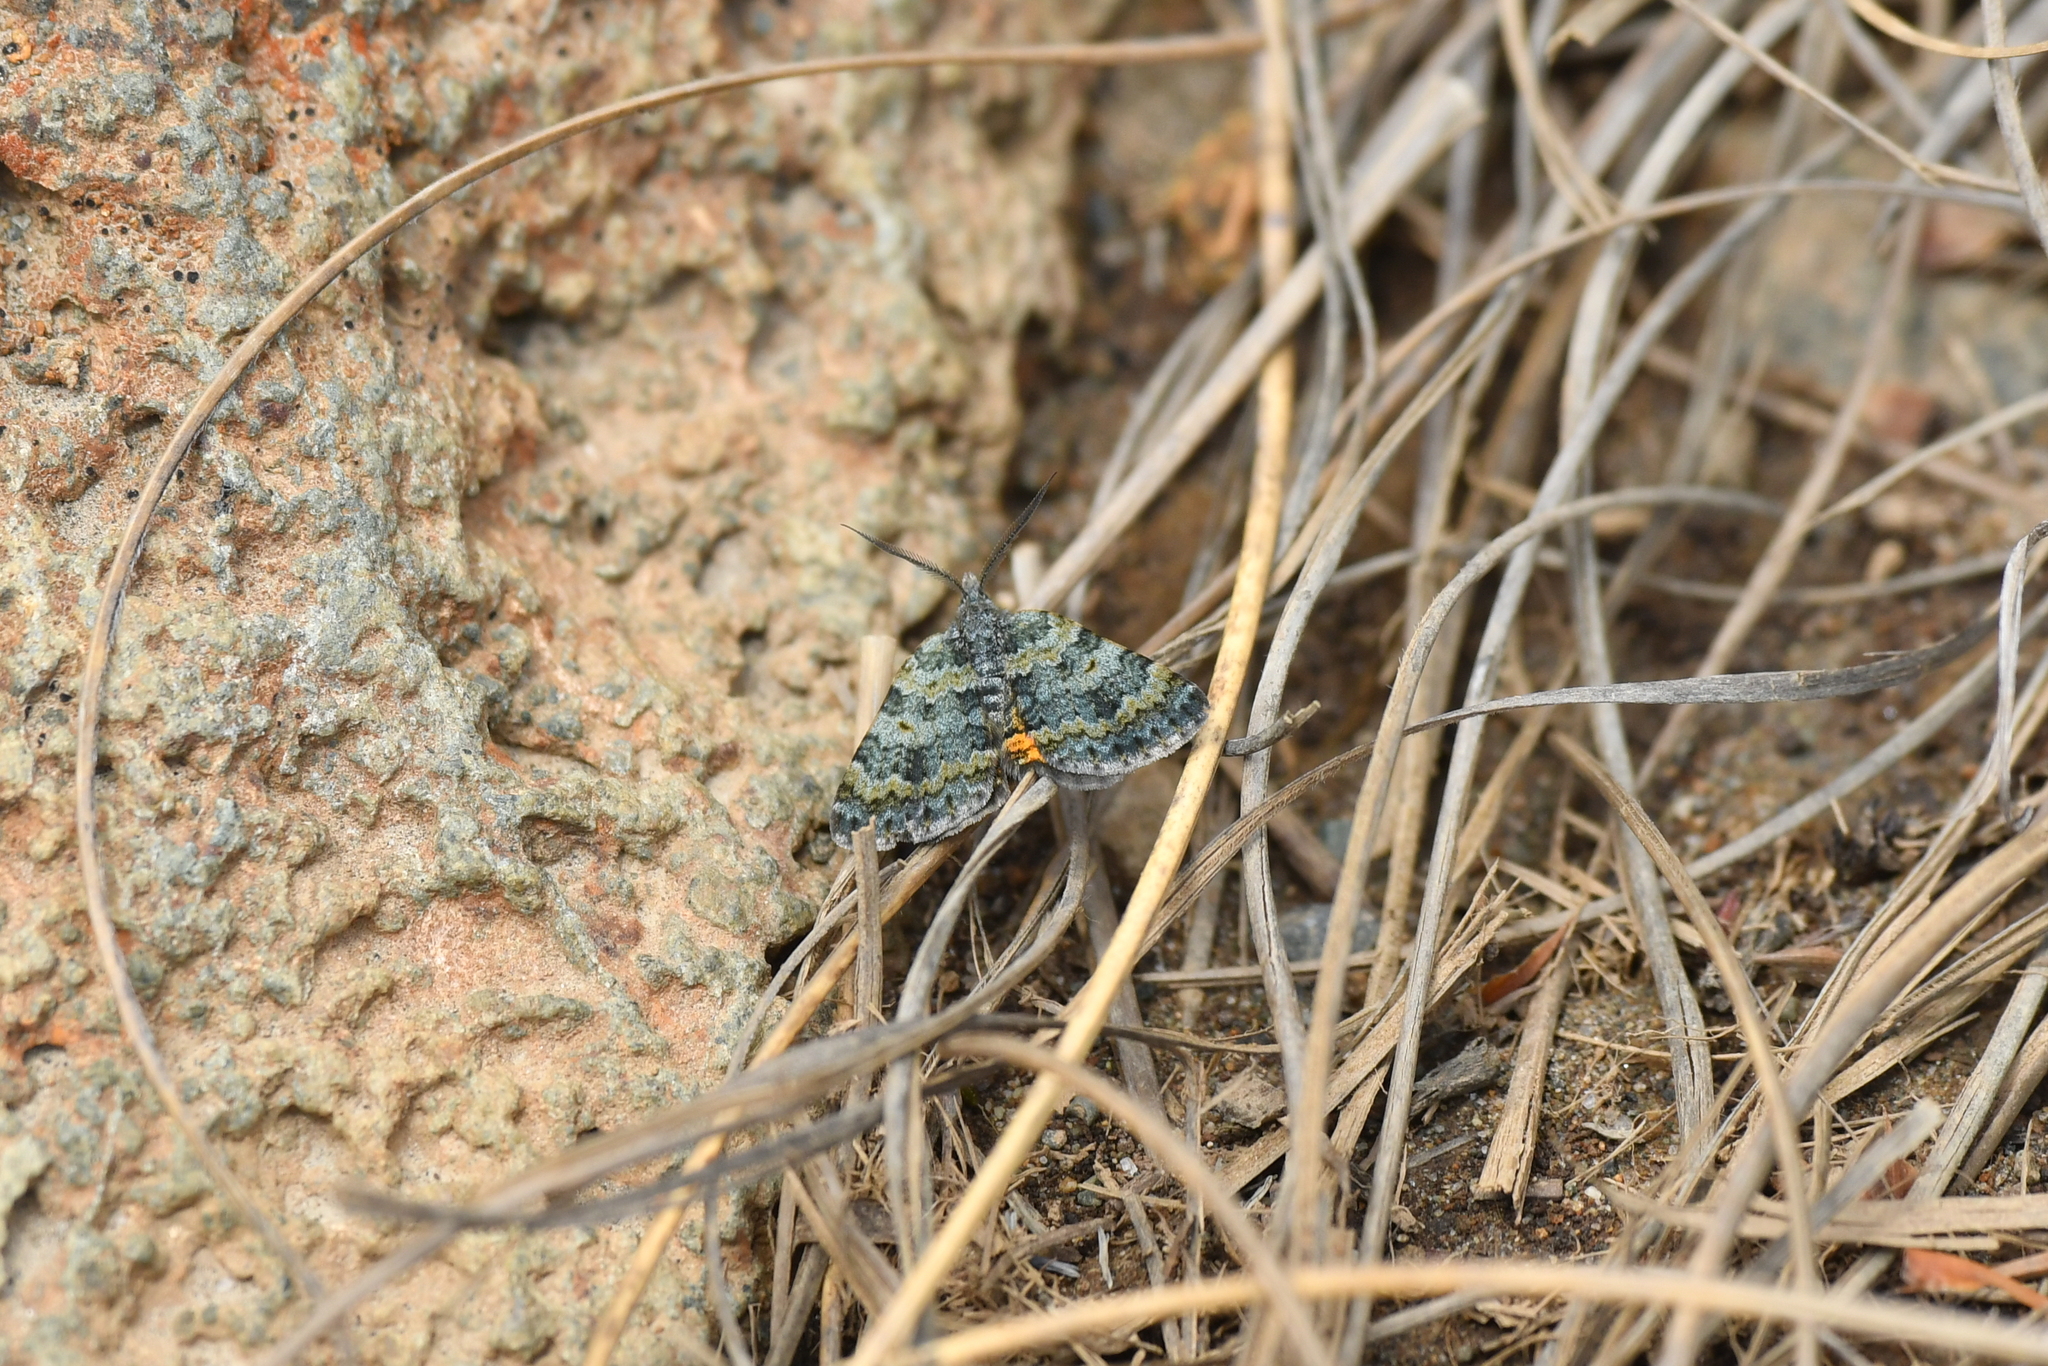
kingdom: Animalia
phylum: Arthropoda
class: Insecta
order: Lepidoptera
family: Geometridae
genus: Paranotoreas
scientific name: Paranotoreas zopyra
